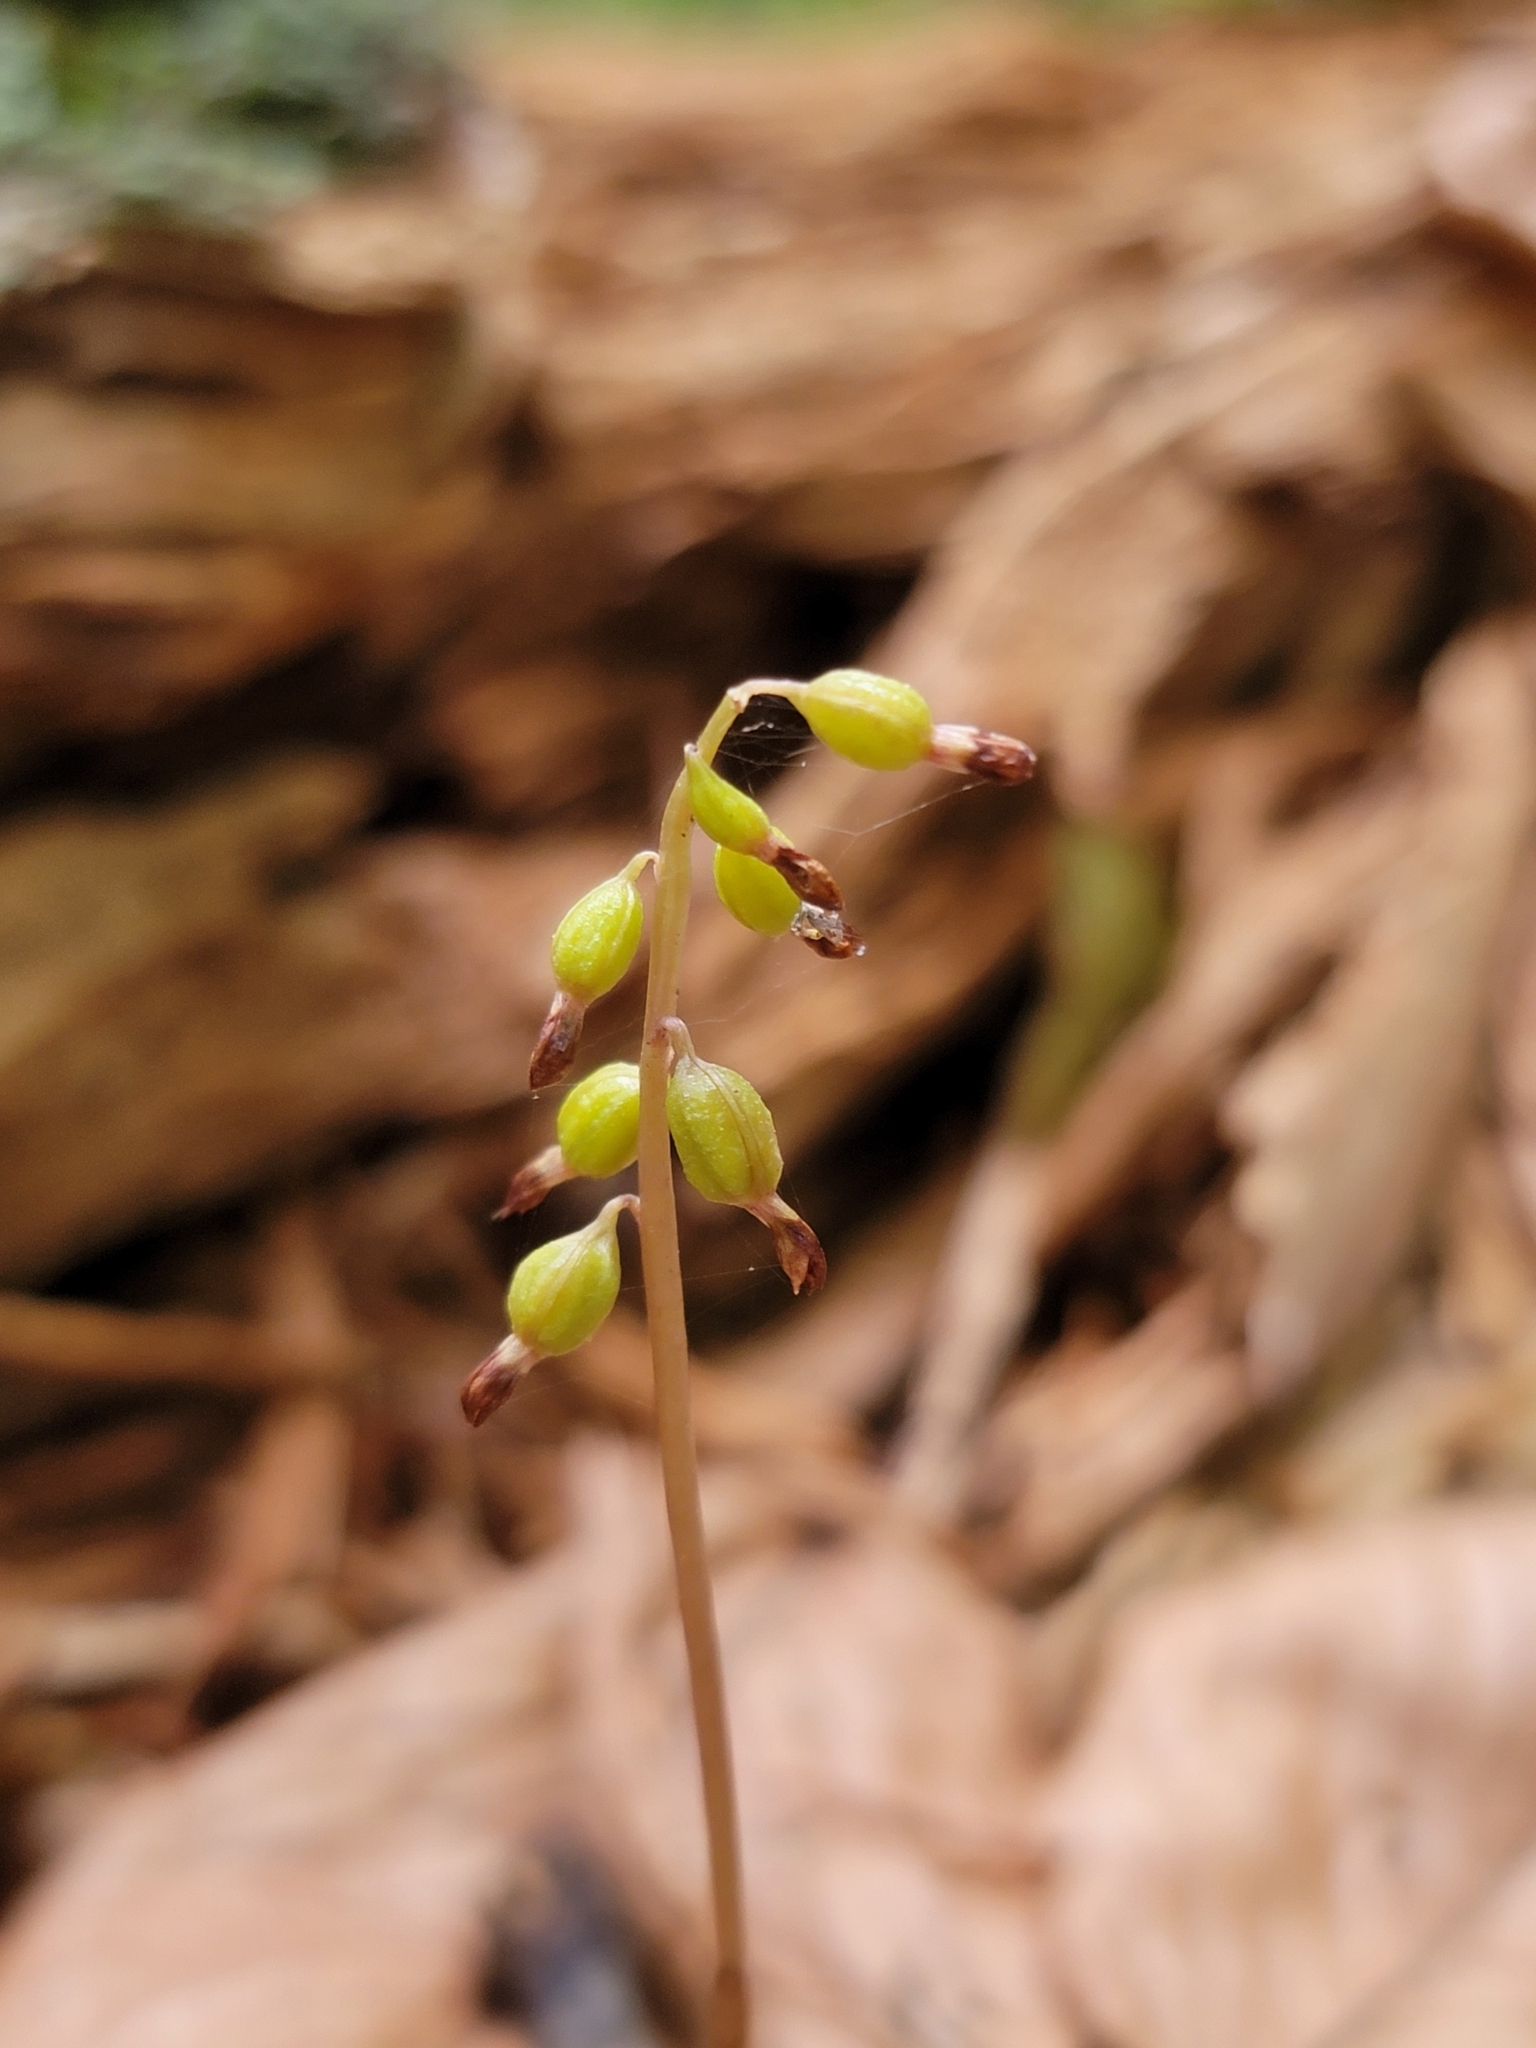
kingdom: Plantae
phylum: Tracheophyta
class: Liliopsida
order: Asparagales
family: Orchidaceae
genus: Corallorhiza
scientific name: Corallorhiza odontorhiza
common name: Autumn coralroot
